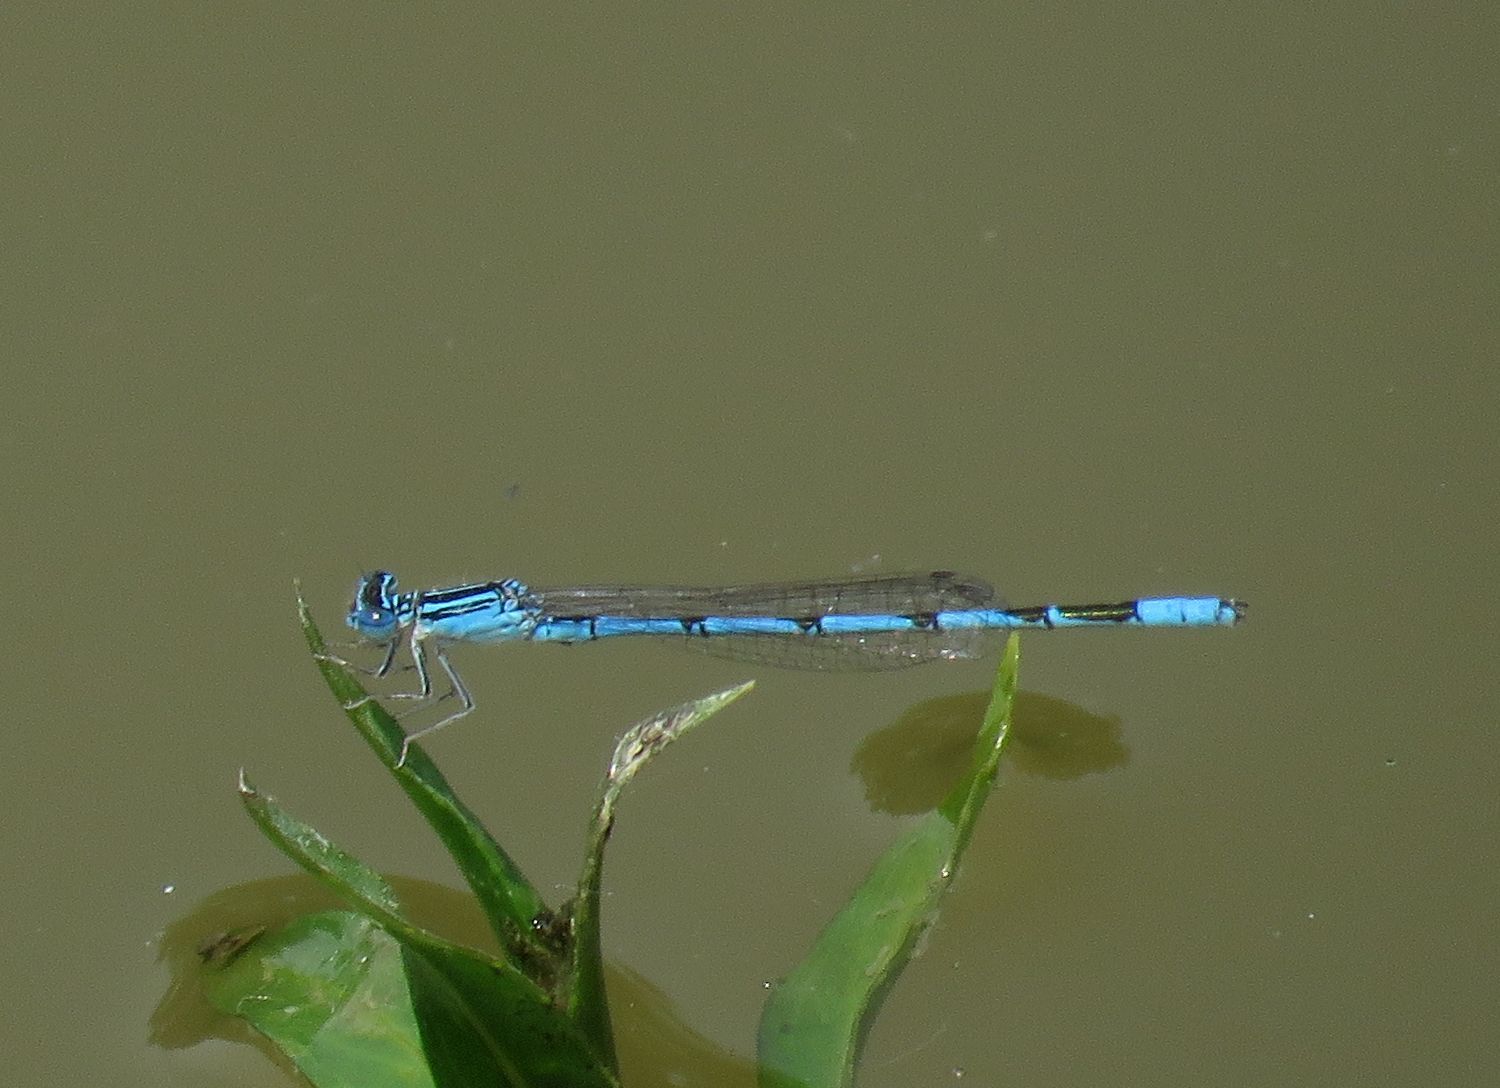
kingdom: Animalia
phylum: Arthropoda
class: Insecta
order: Odonata
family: Coenagrionidae
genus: Enallagma
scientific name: Enallagma basidens
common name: Double-striped bluet
